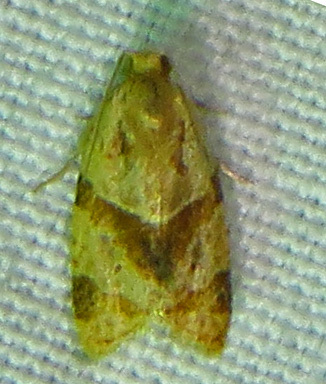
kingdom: Animalia
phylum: Arthropoda
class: Insecta
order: Lepidoptera
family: Tortricidae
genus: Clepsis
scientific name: Clepsis peritana
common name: Garden tortrix
